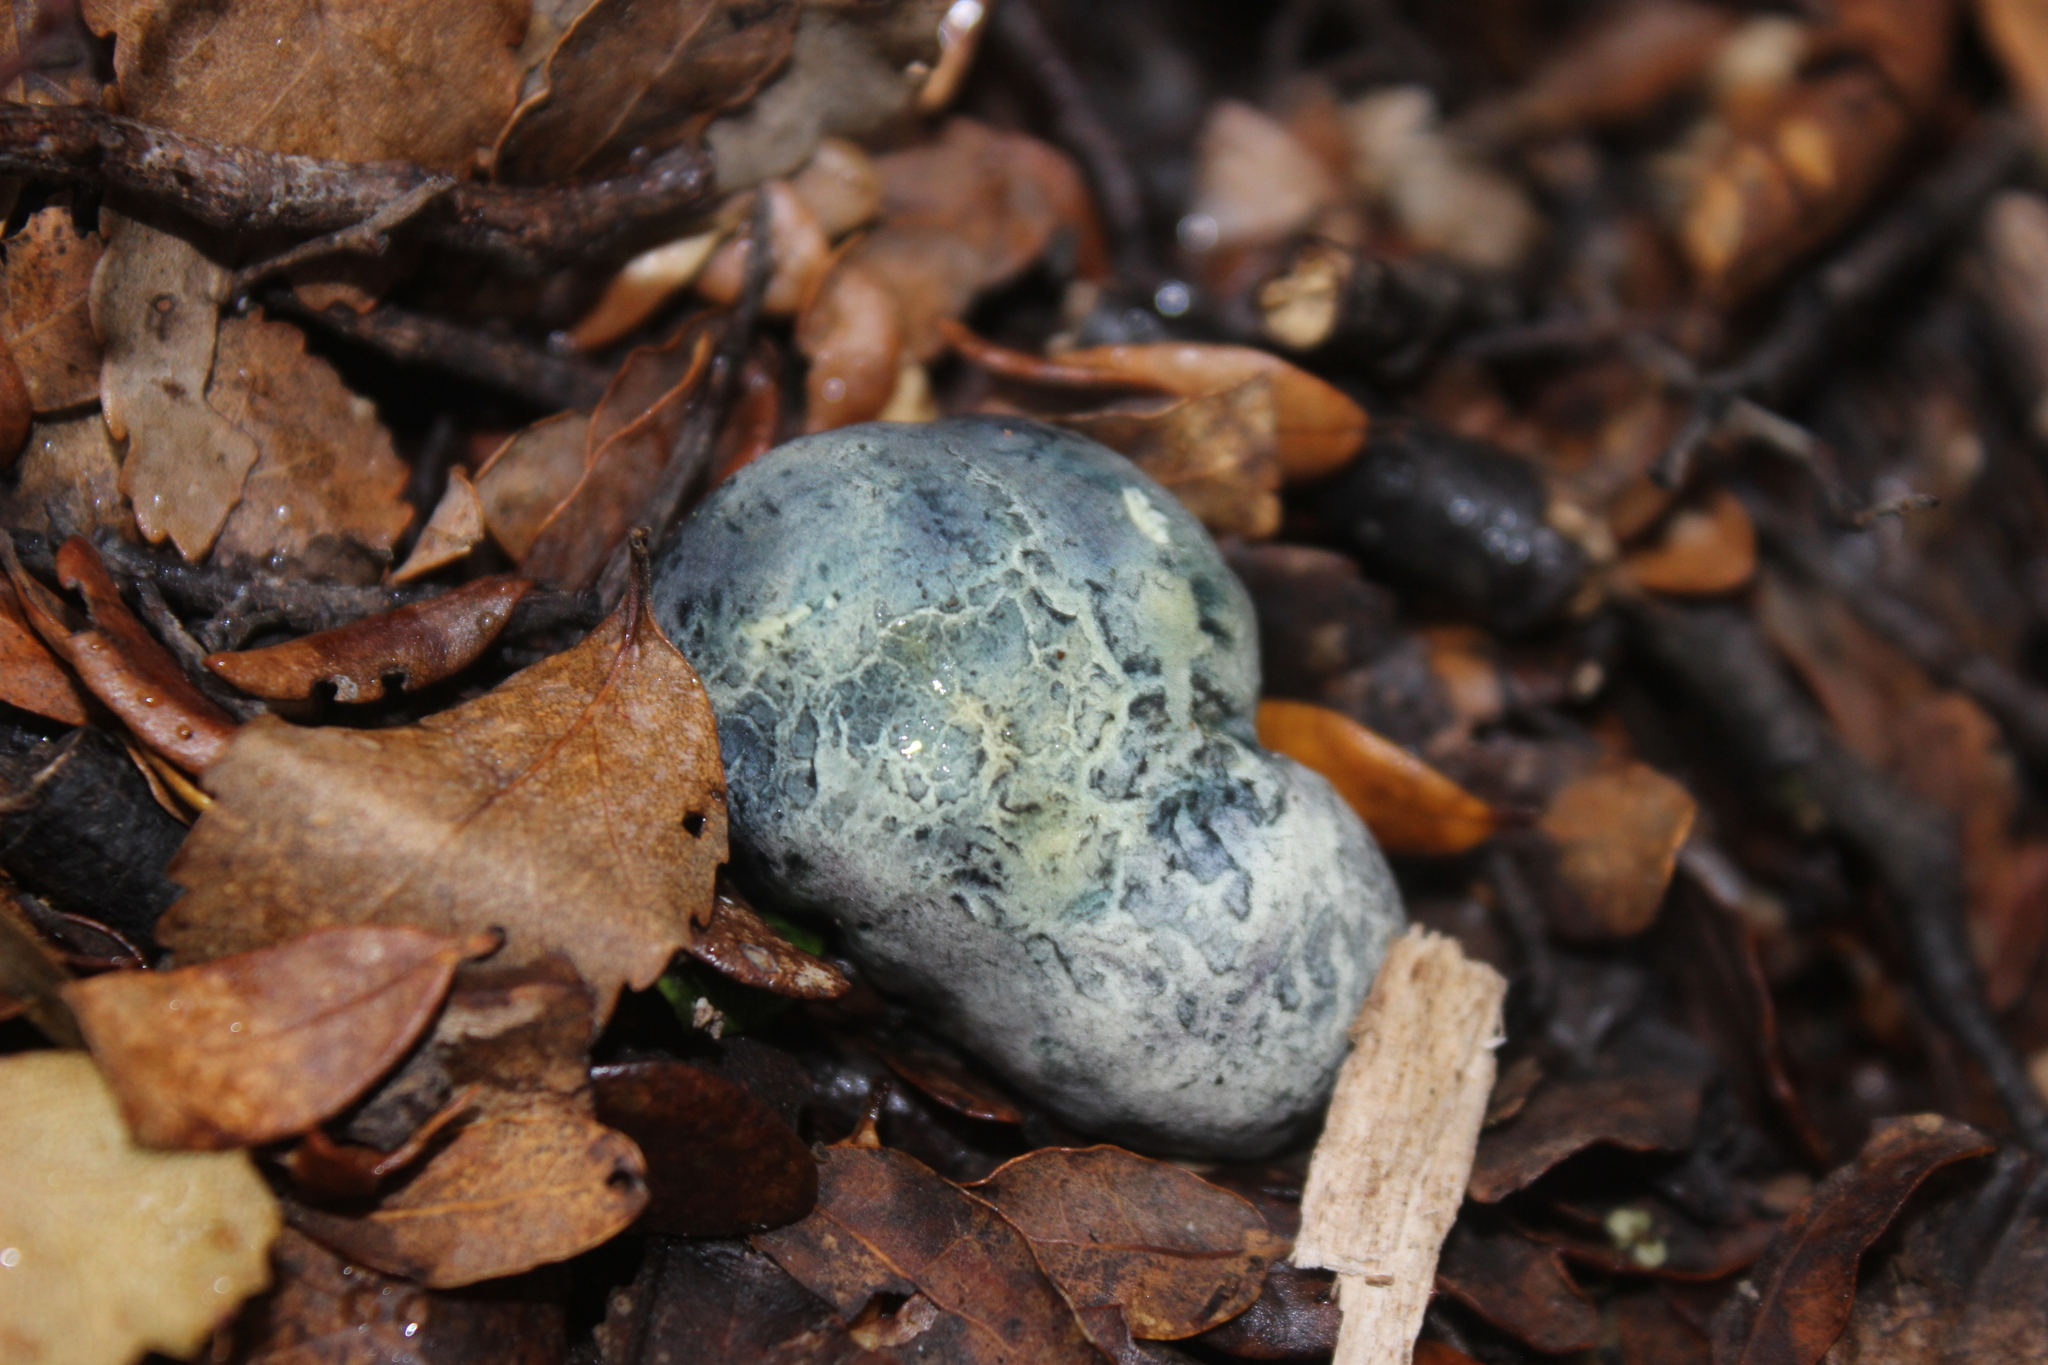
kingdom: Fungi
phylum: Basidiomycota
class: Agaricomycetes
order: Boletales
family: Boletaceae
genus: Leccinum
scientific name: Leccinum pachyderme
